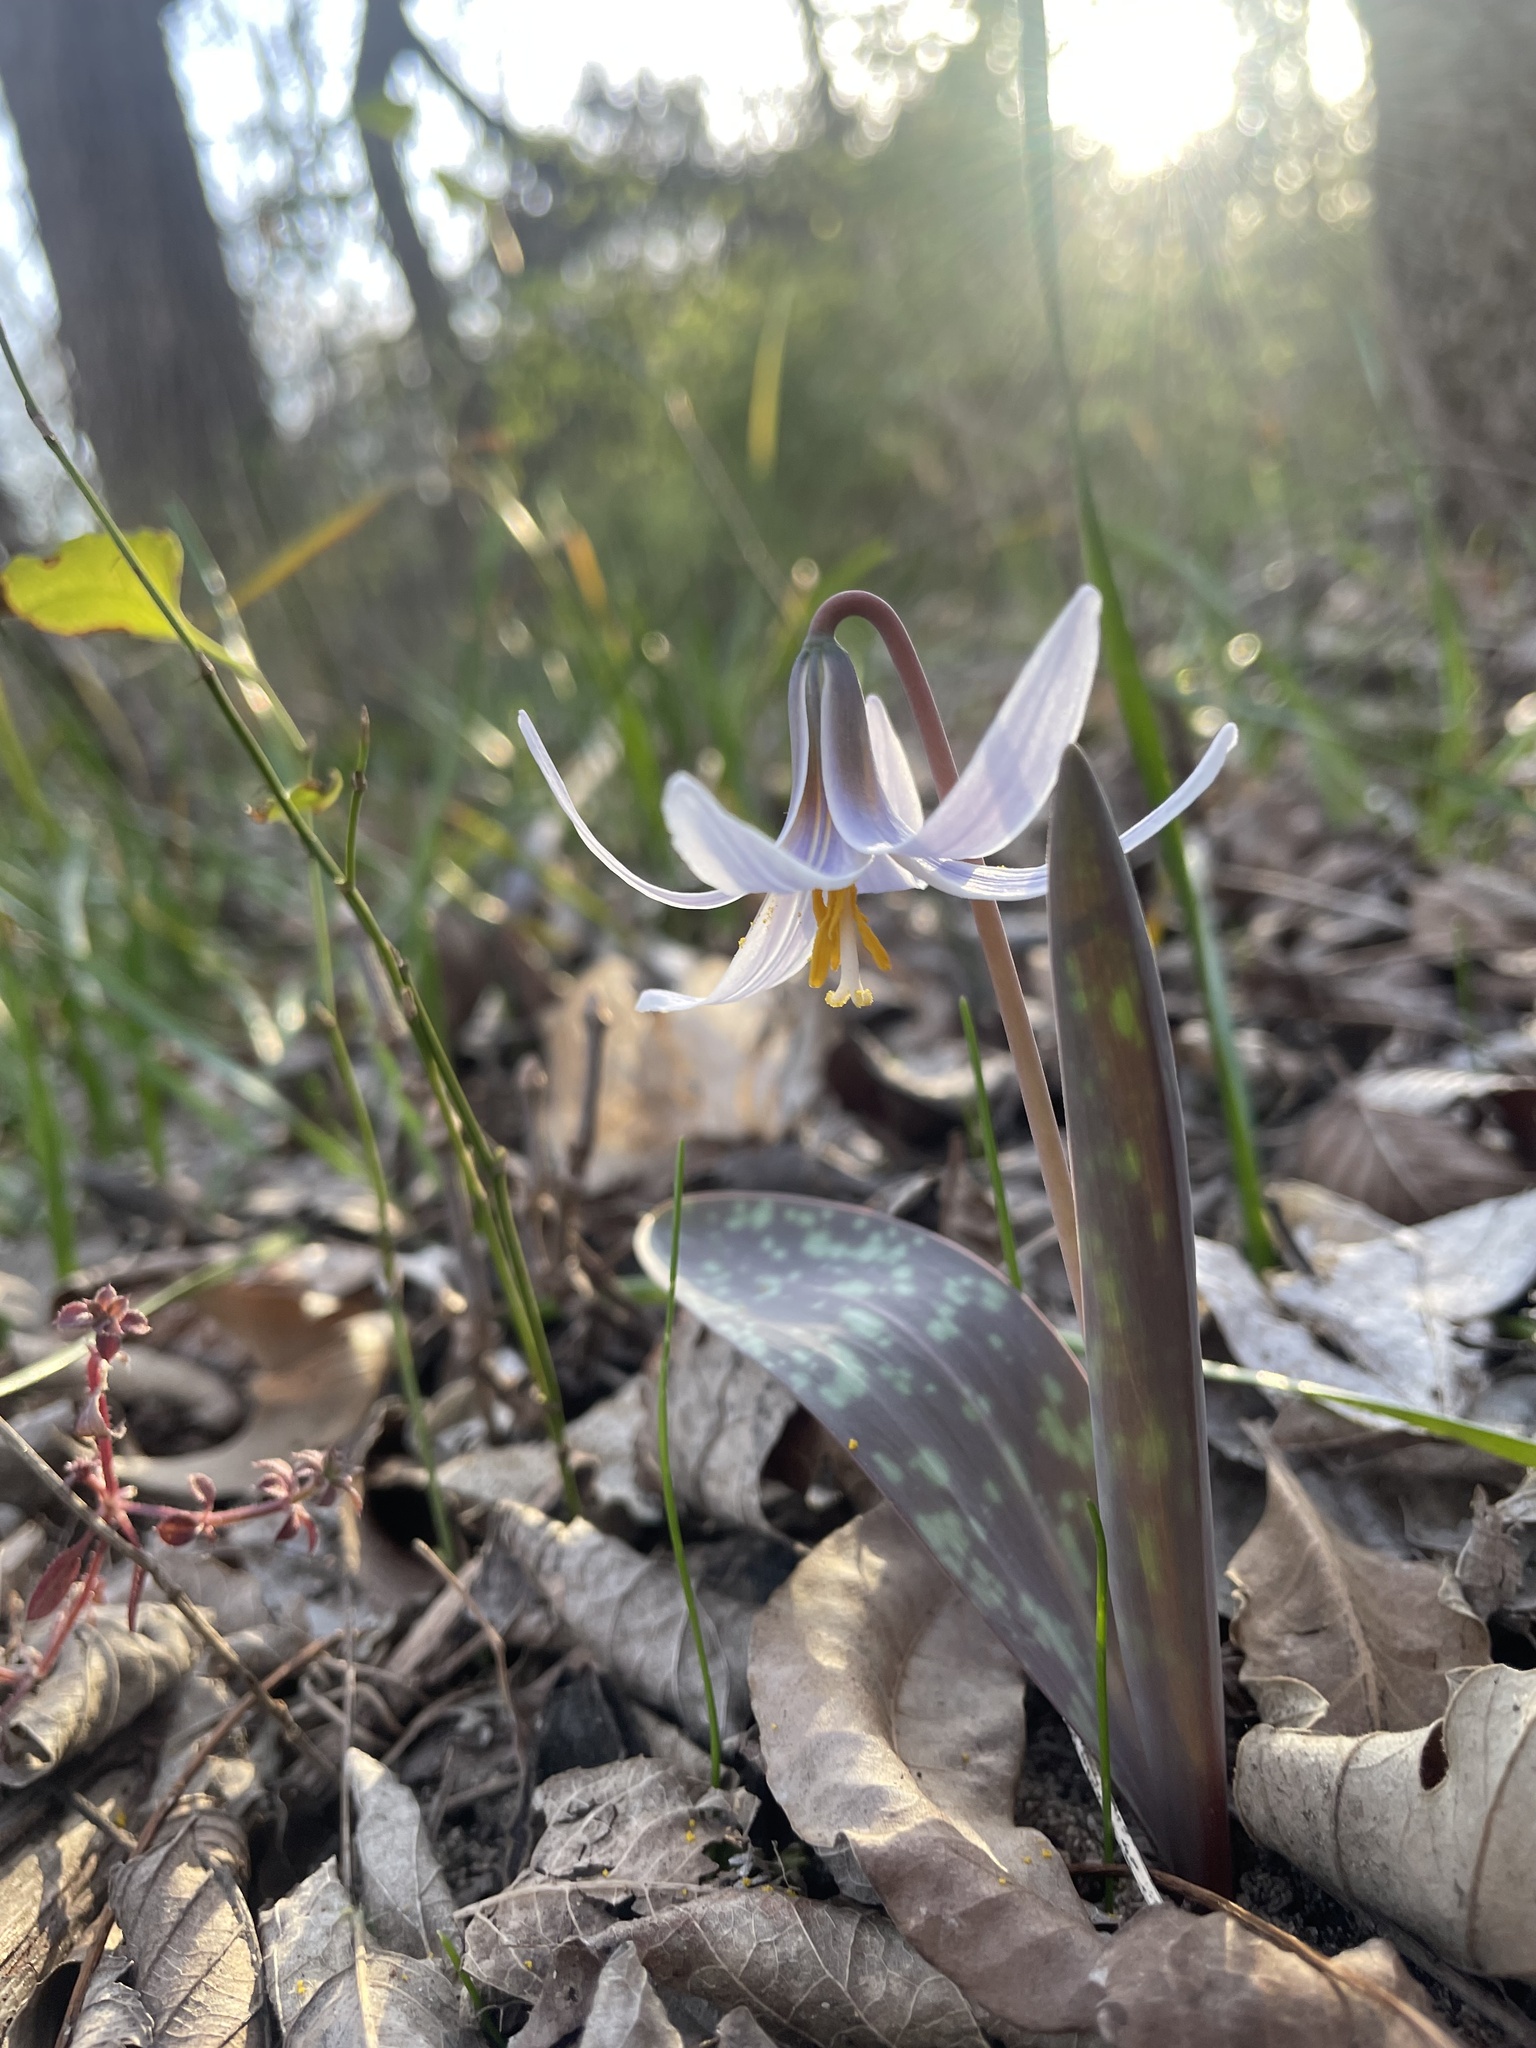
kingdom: Plantae
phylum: Tracheophyta
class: Liliopsida
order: Liliales
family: Liliaceae
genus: Erythronium
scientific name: Erythronium albidum
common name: White trout-lily
